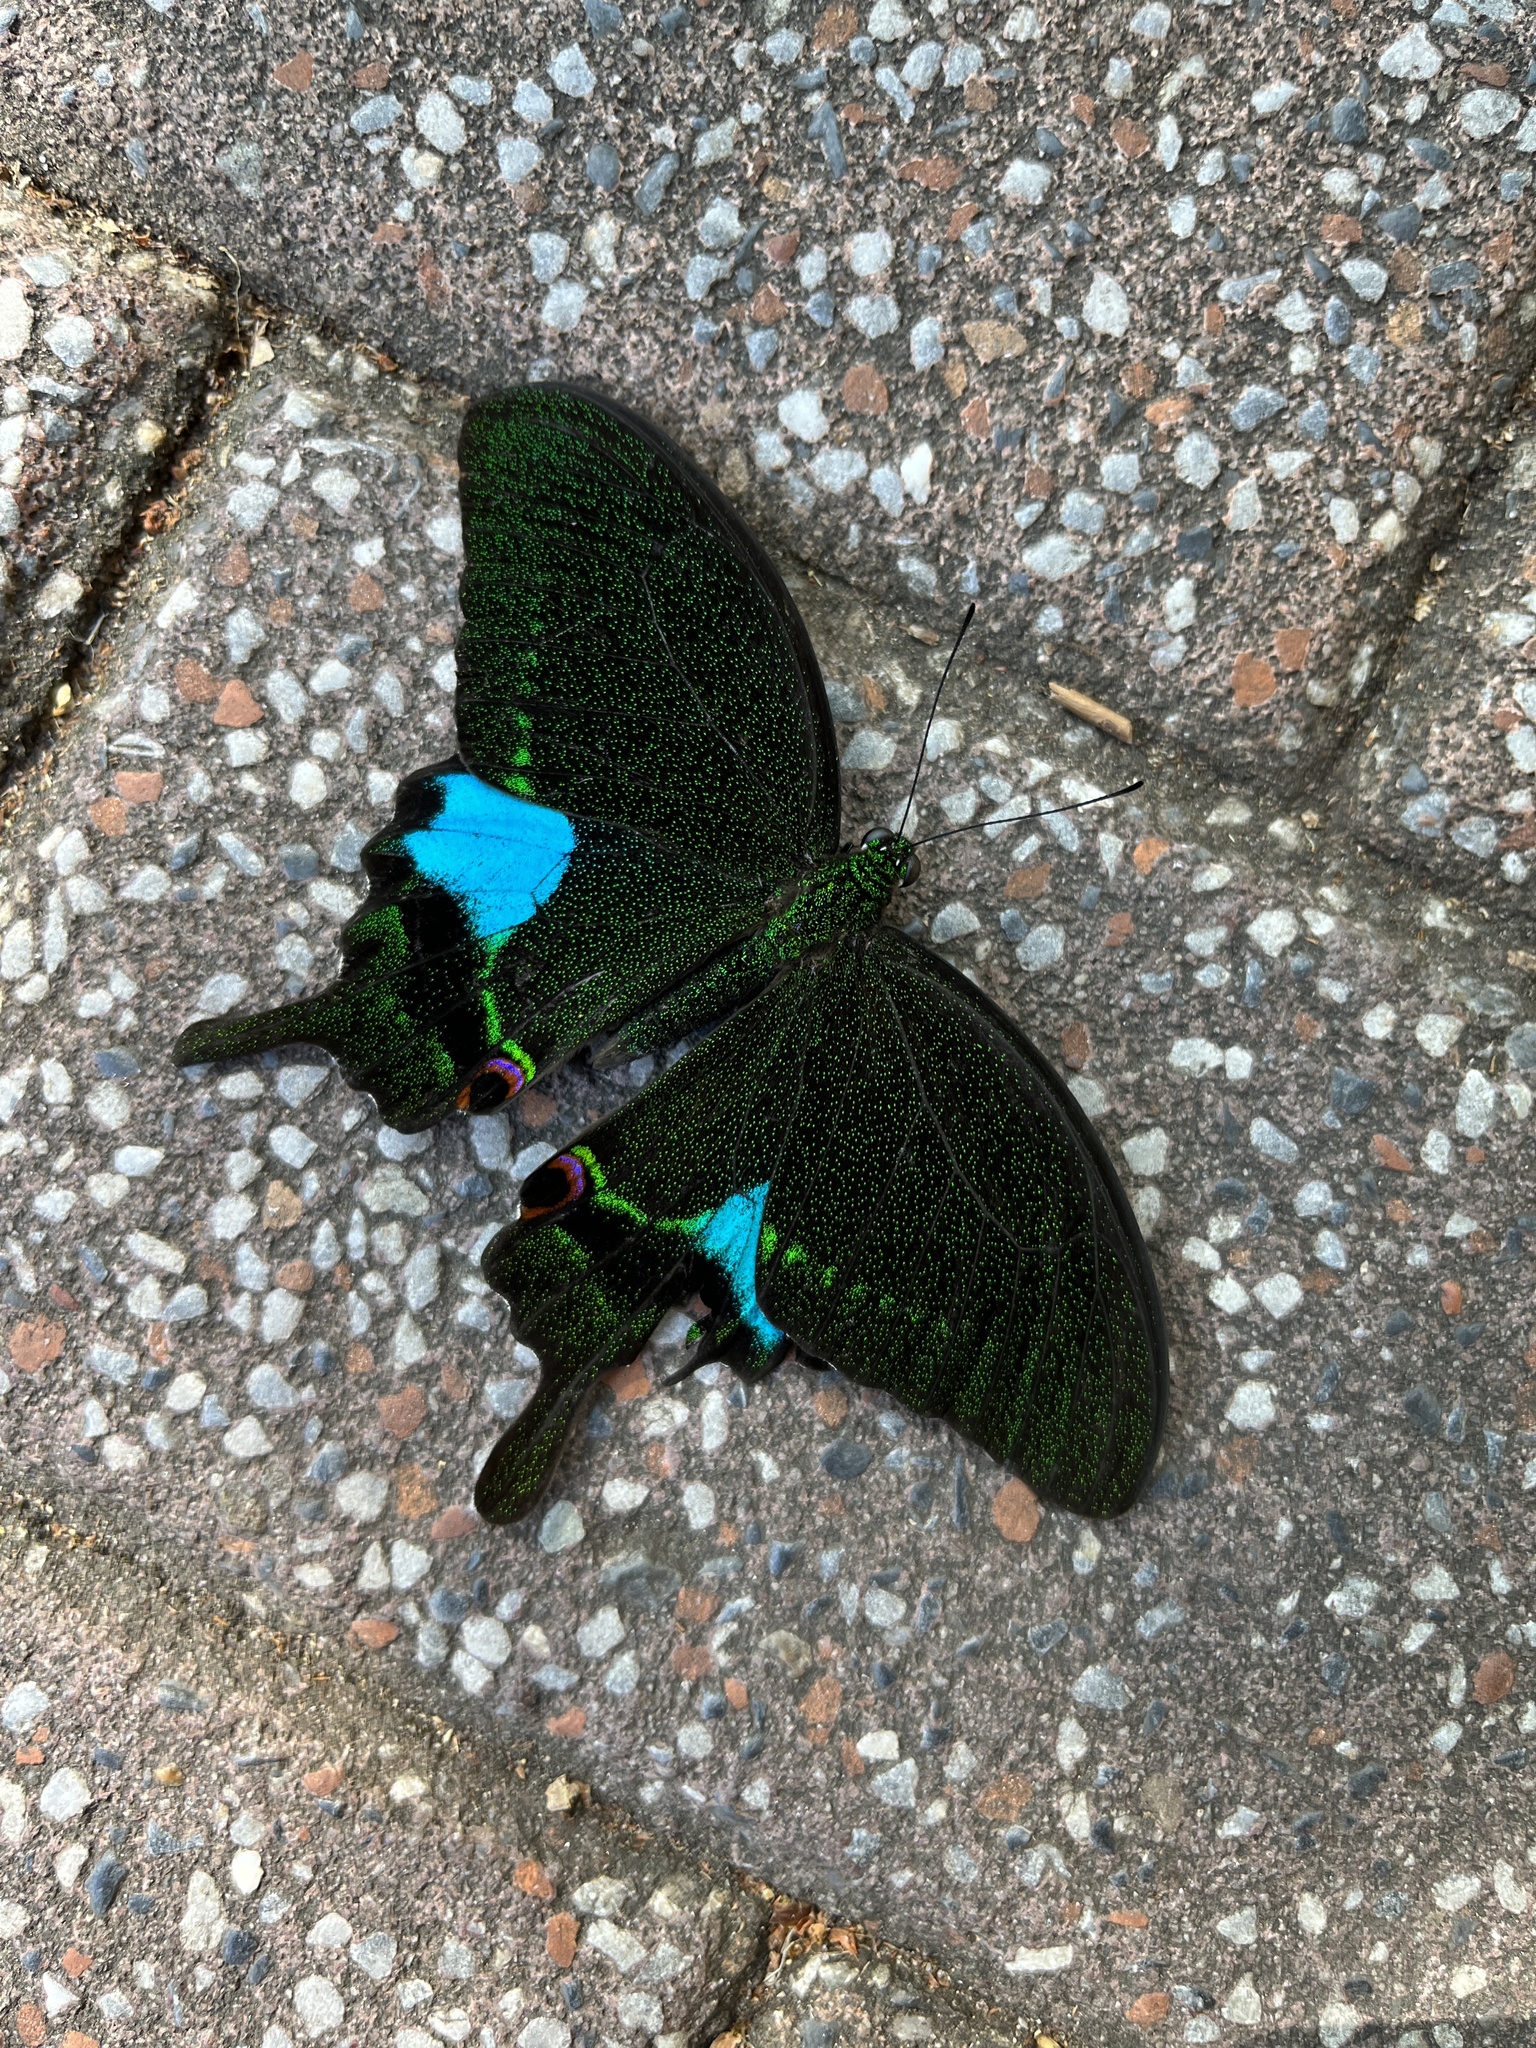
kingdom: Animalia
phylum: Arthropoda
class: Insecta
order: Lepidoptera
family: Papilionidae
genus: Papilio
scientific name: Papilio paris
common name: Paris peacock
